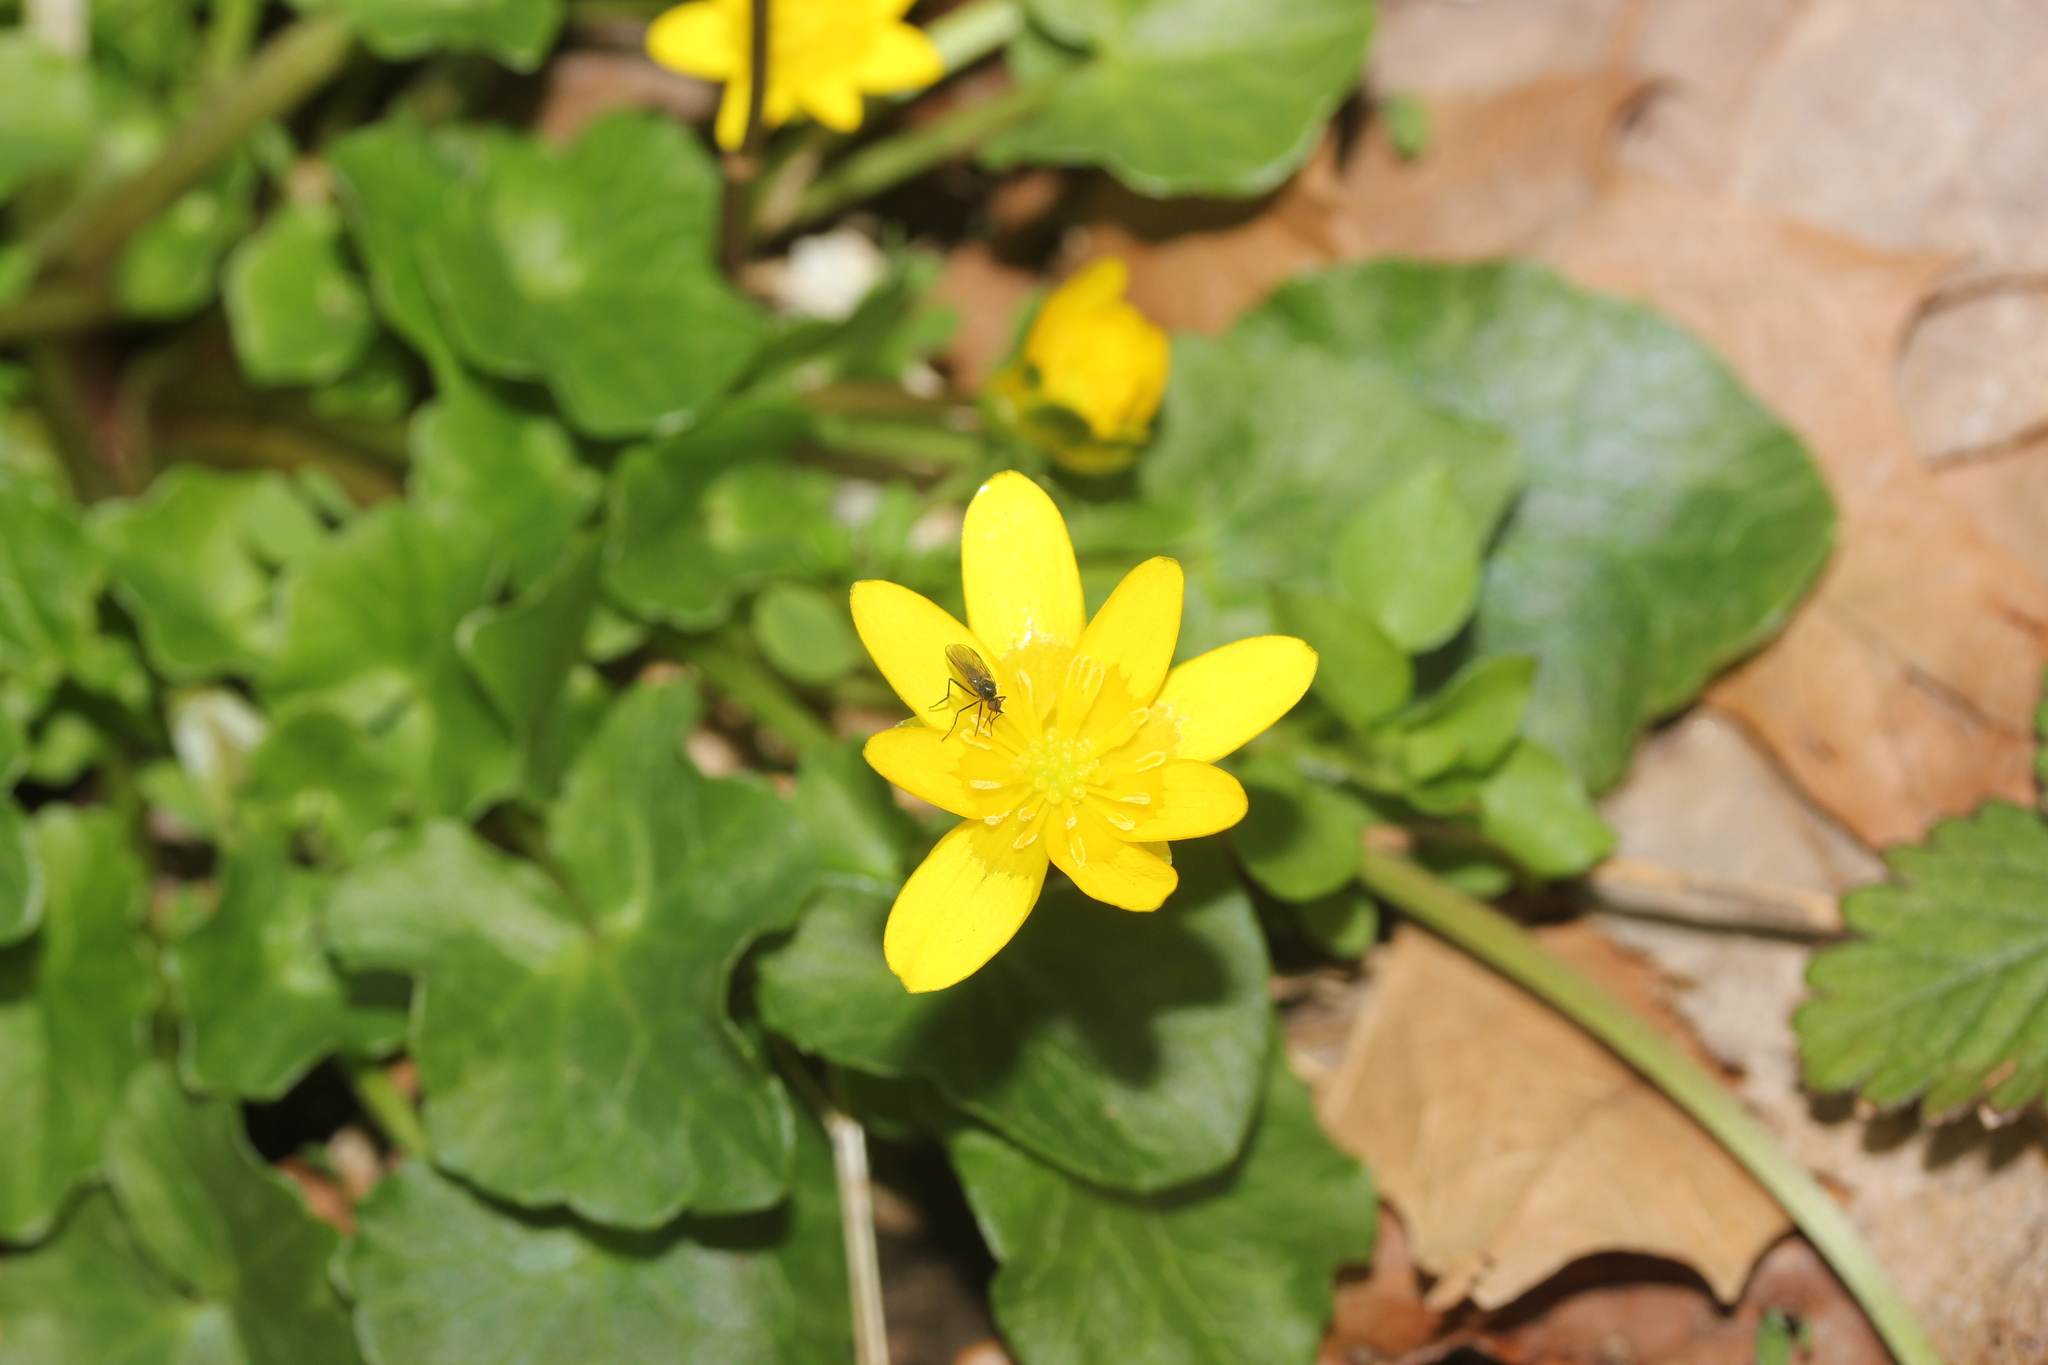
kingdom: Plantae
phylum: Tracheophyta
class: Magnoliopsida
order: Ranunculales
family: Ranunculaceae
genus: Ficaria
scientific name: Ficaria verna
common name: Lesser celandine
